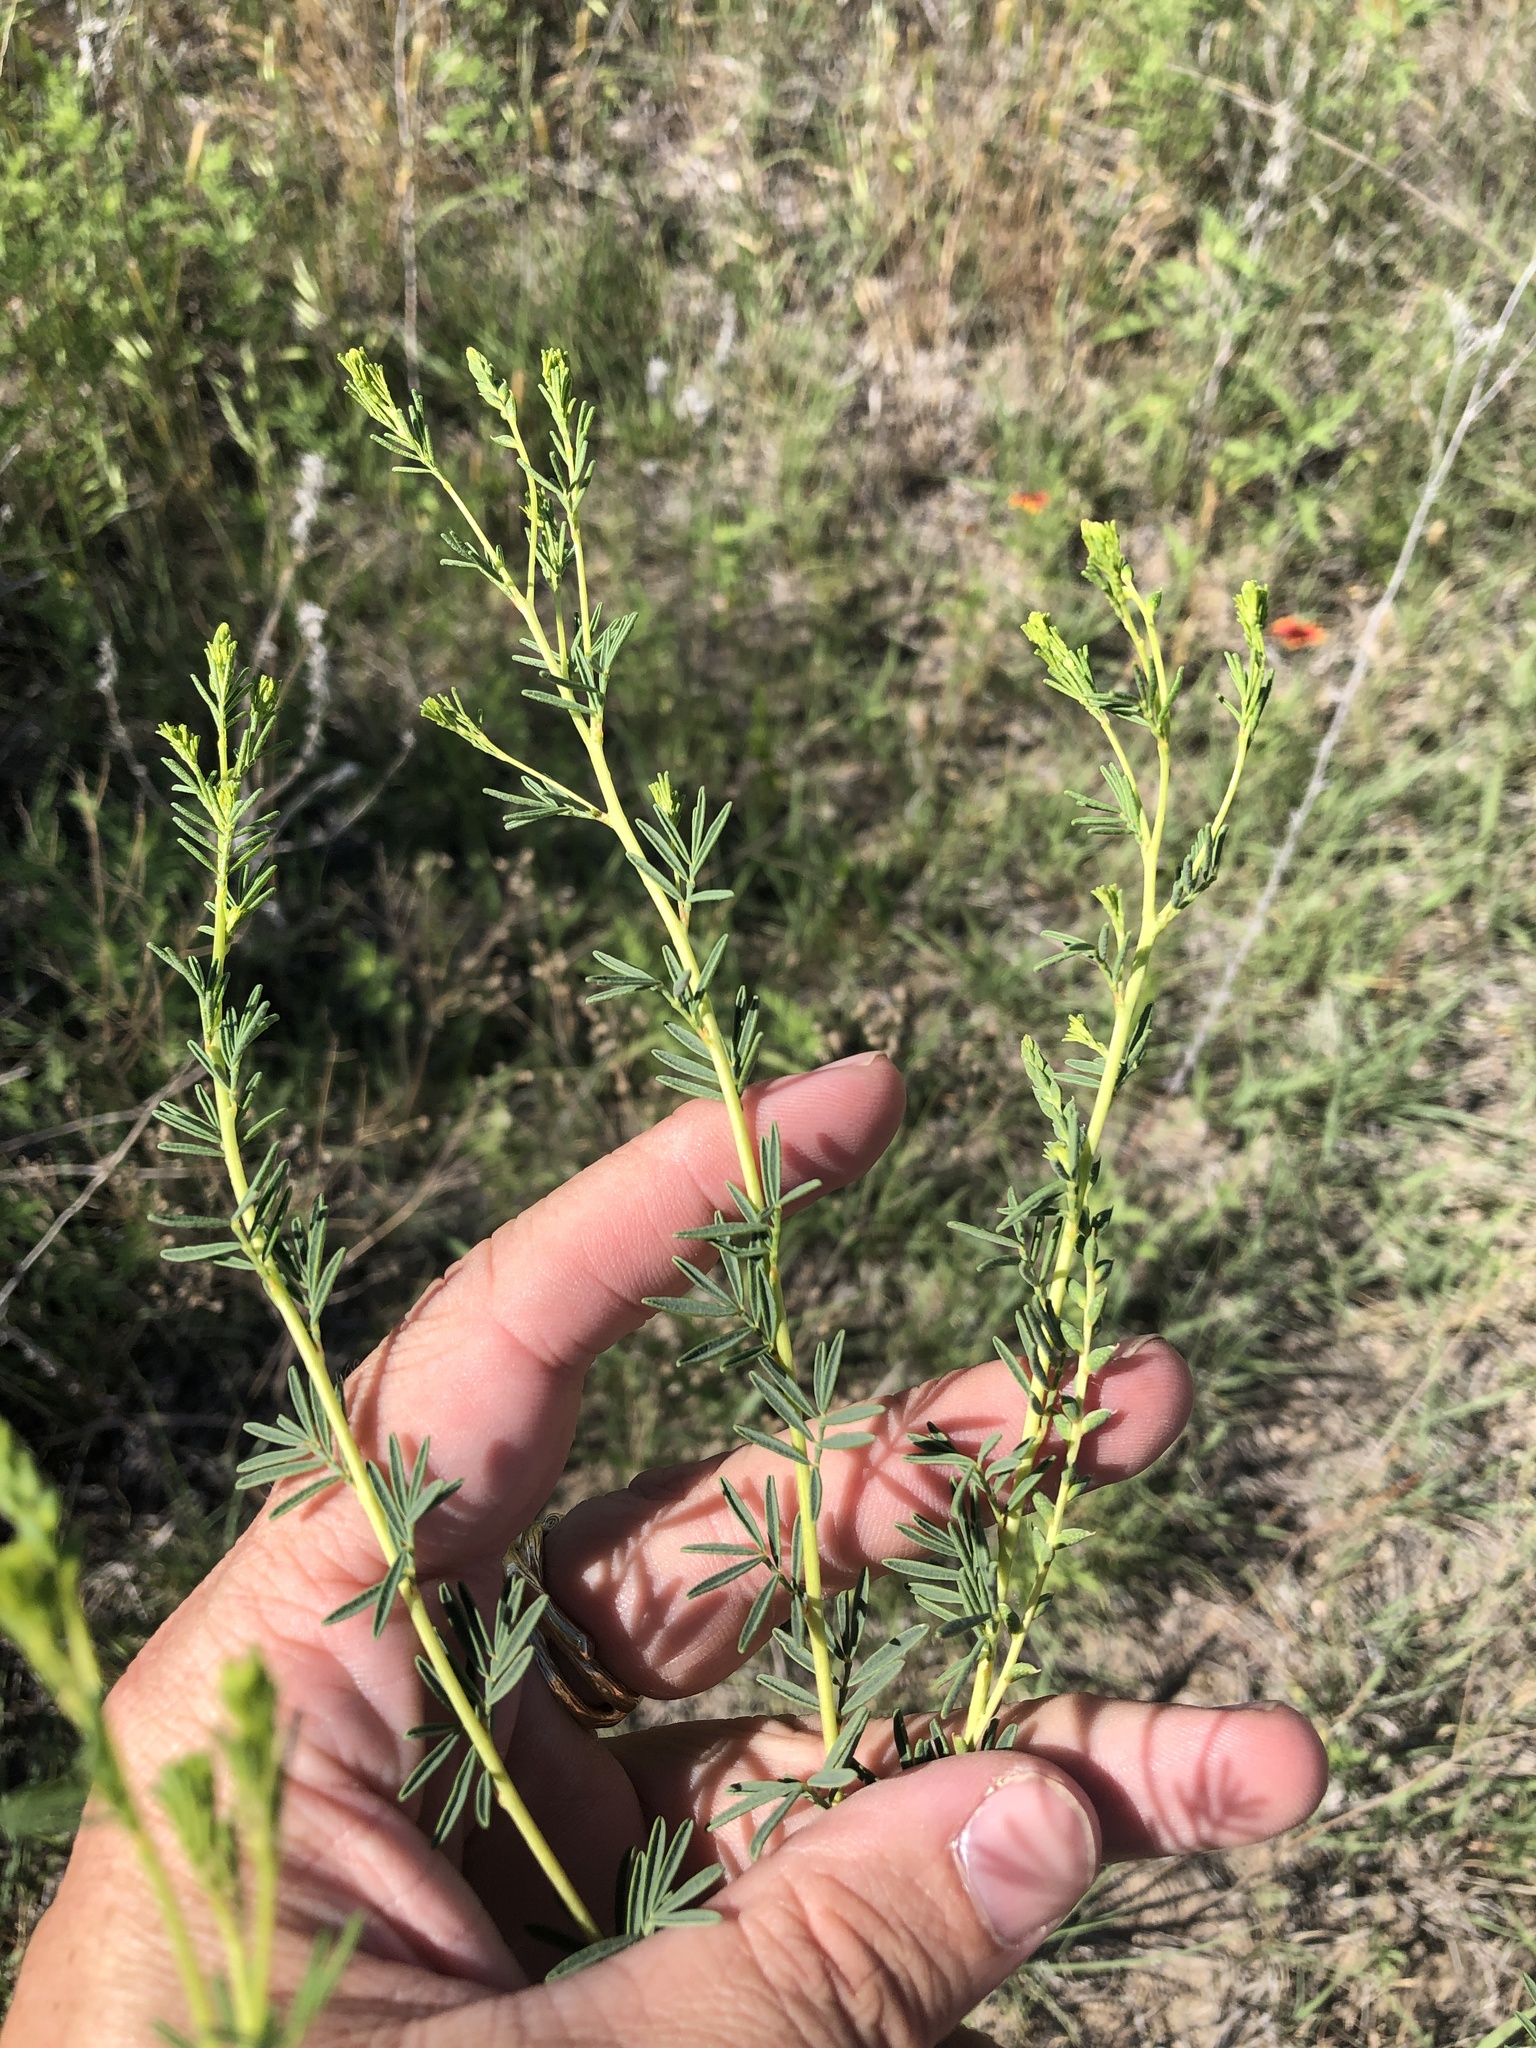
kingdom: Plantae
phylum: Tracheophyta
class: Magnoliopsida
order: Fabales
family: Fabaceae
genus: Dalea
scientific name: Dalea enneandra
